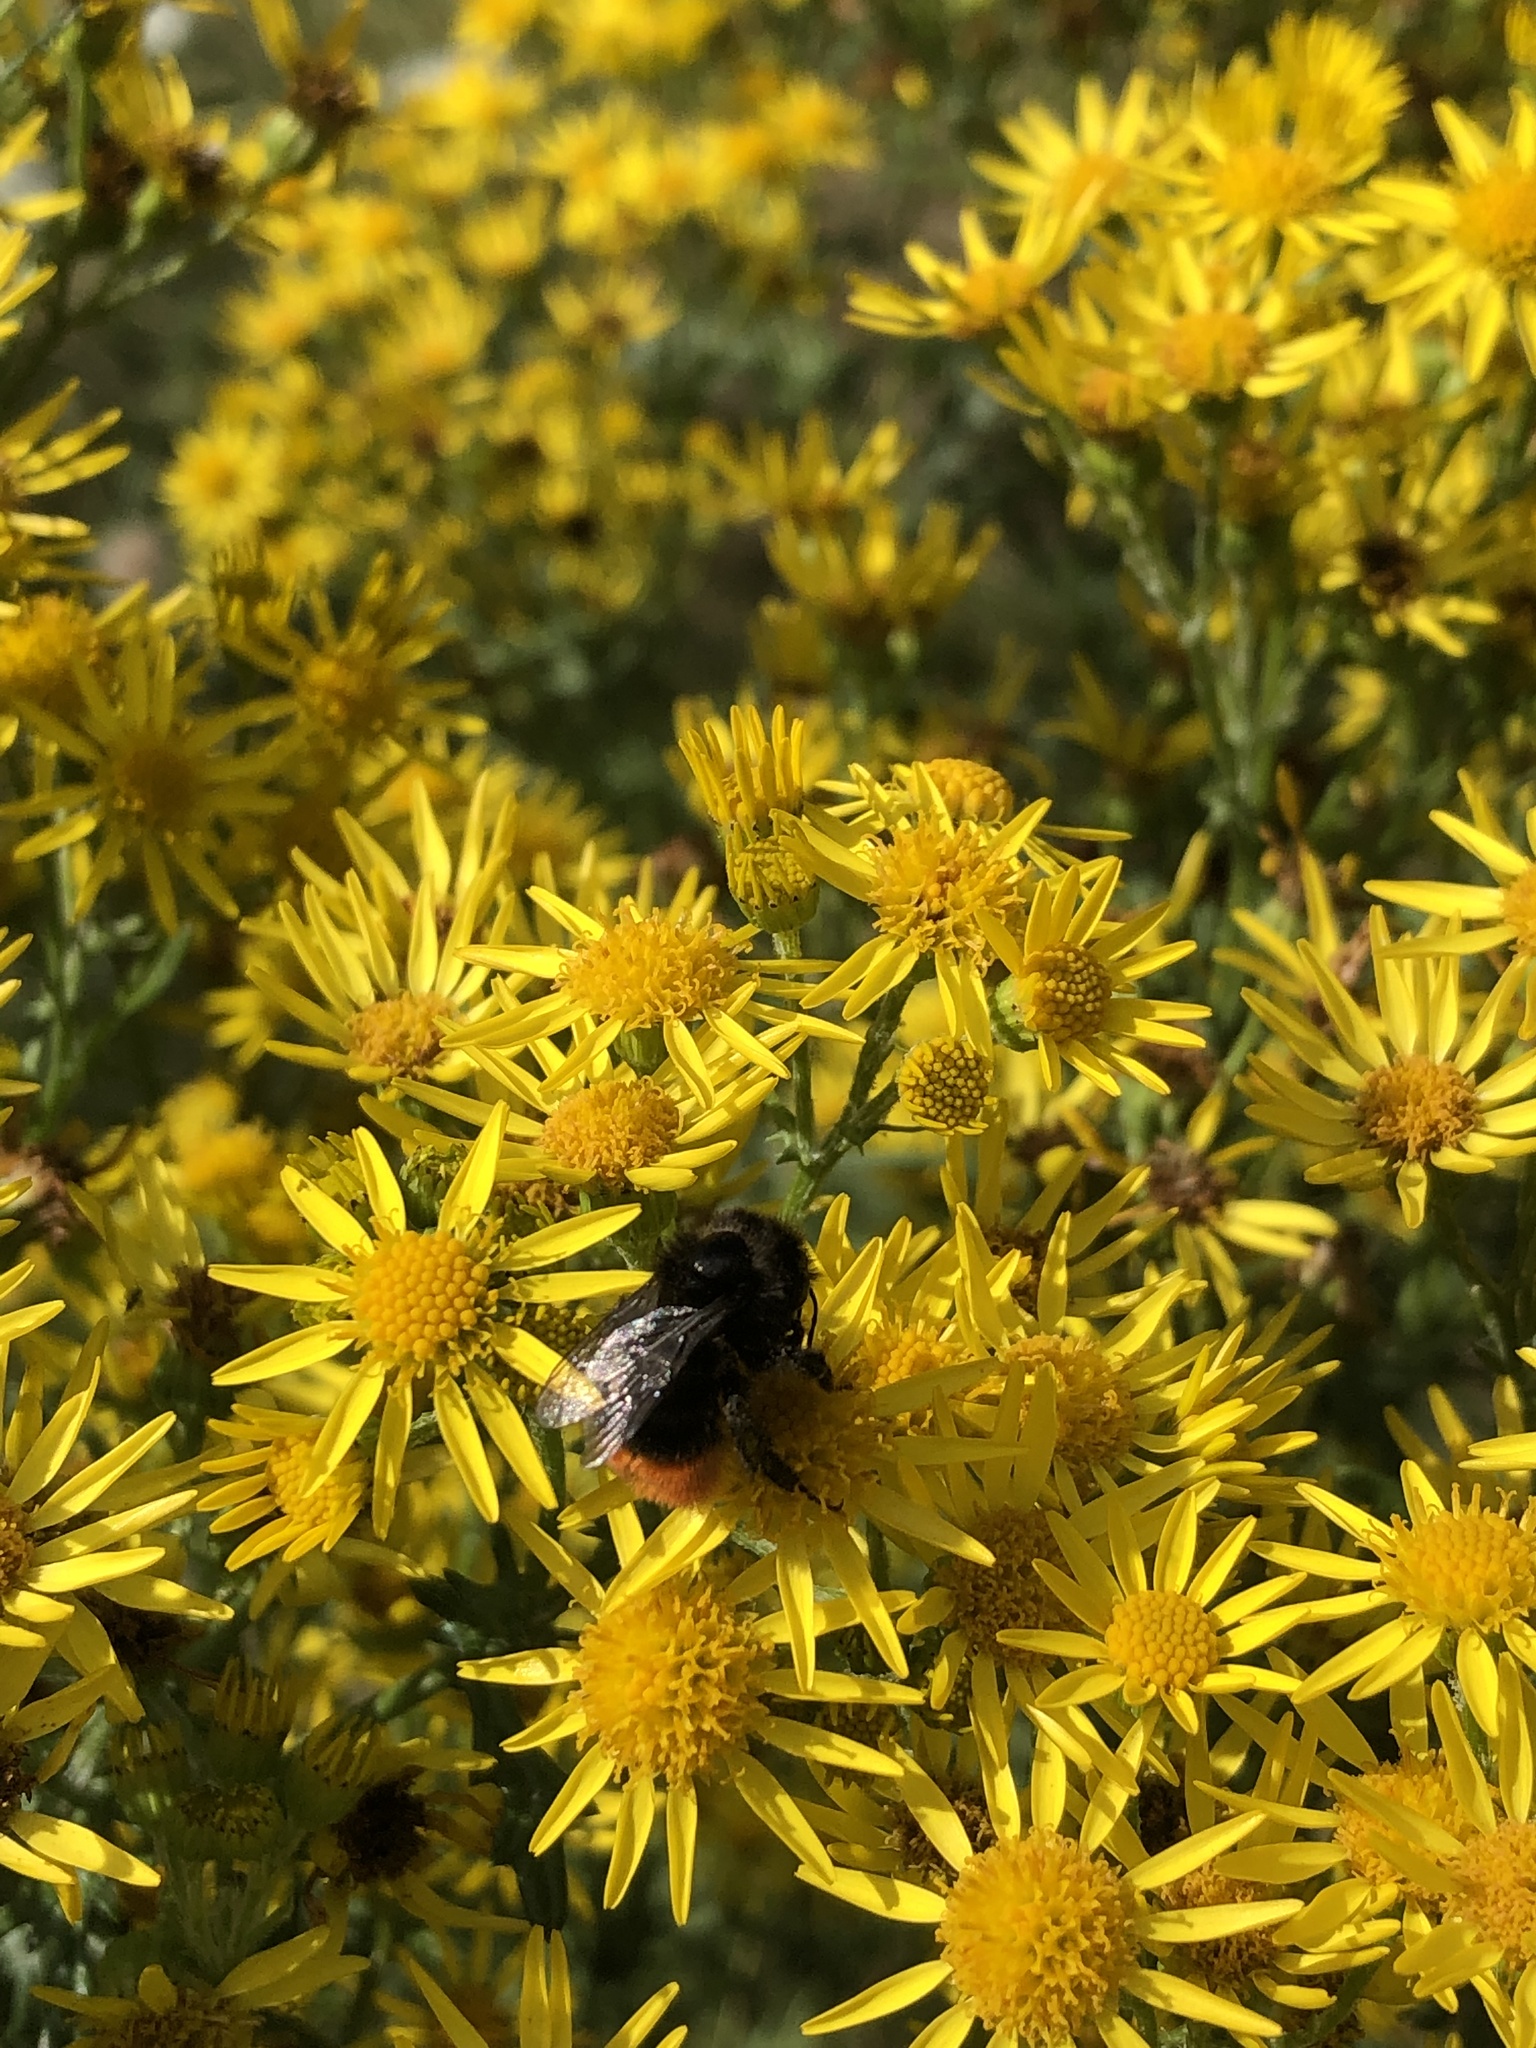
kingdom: Animalia
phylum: Arthropoda
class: Insecta
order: Hymenoptera
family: Apidae
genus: Bombus
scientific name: Bombus lapidarius
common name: Large red-tailed humble-bee
